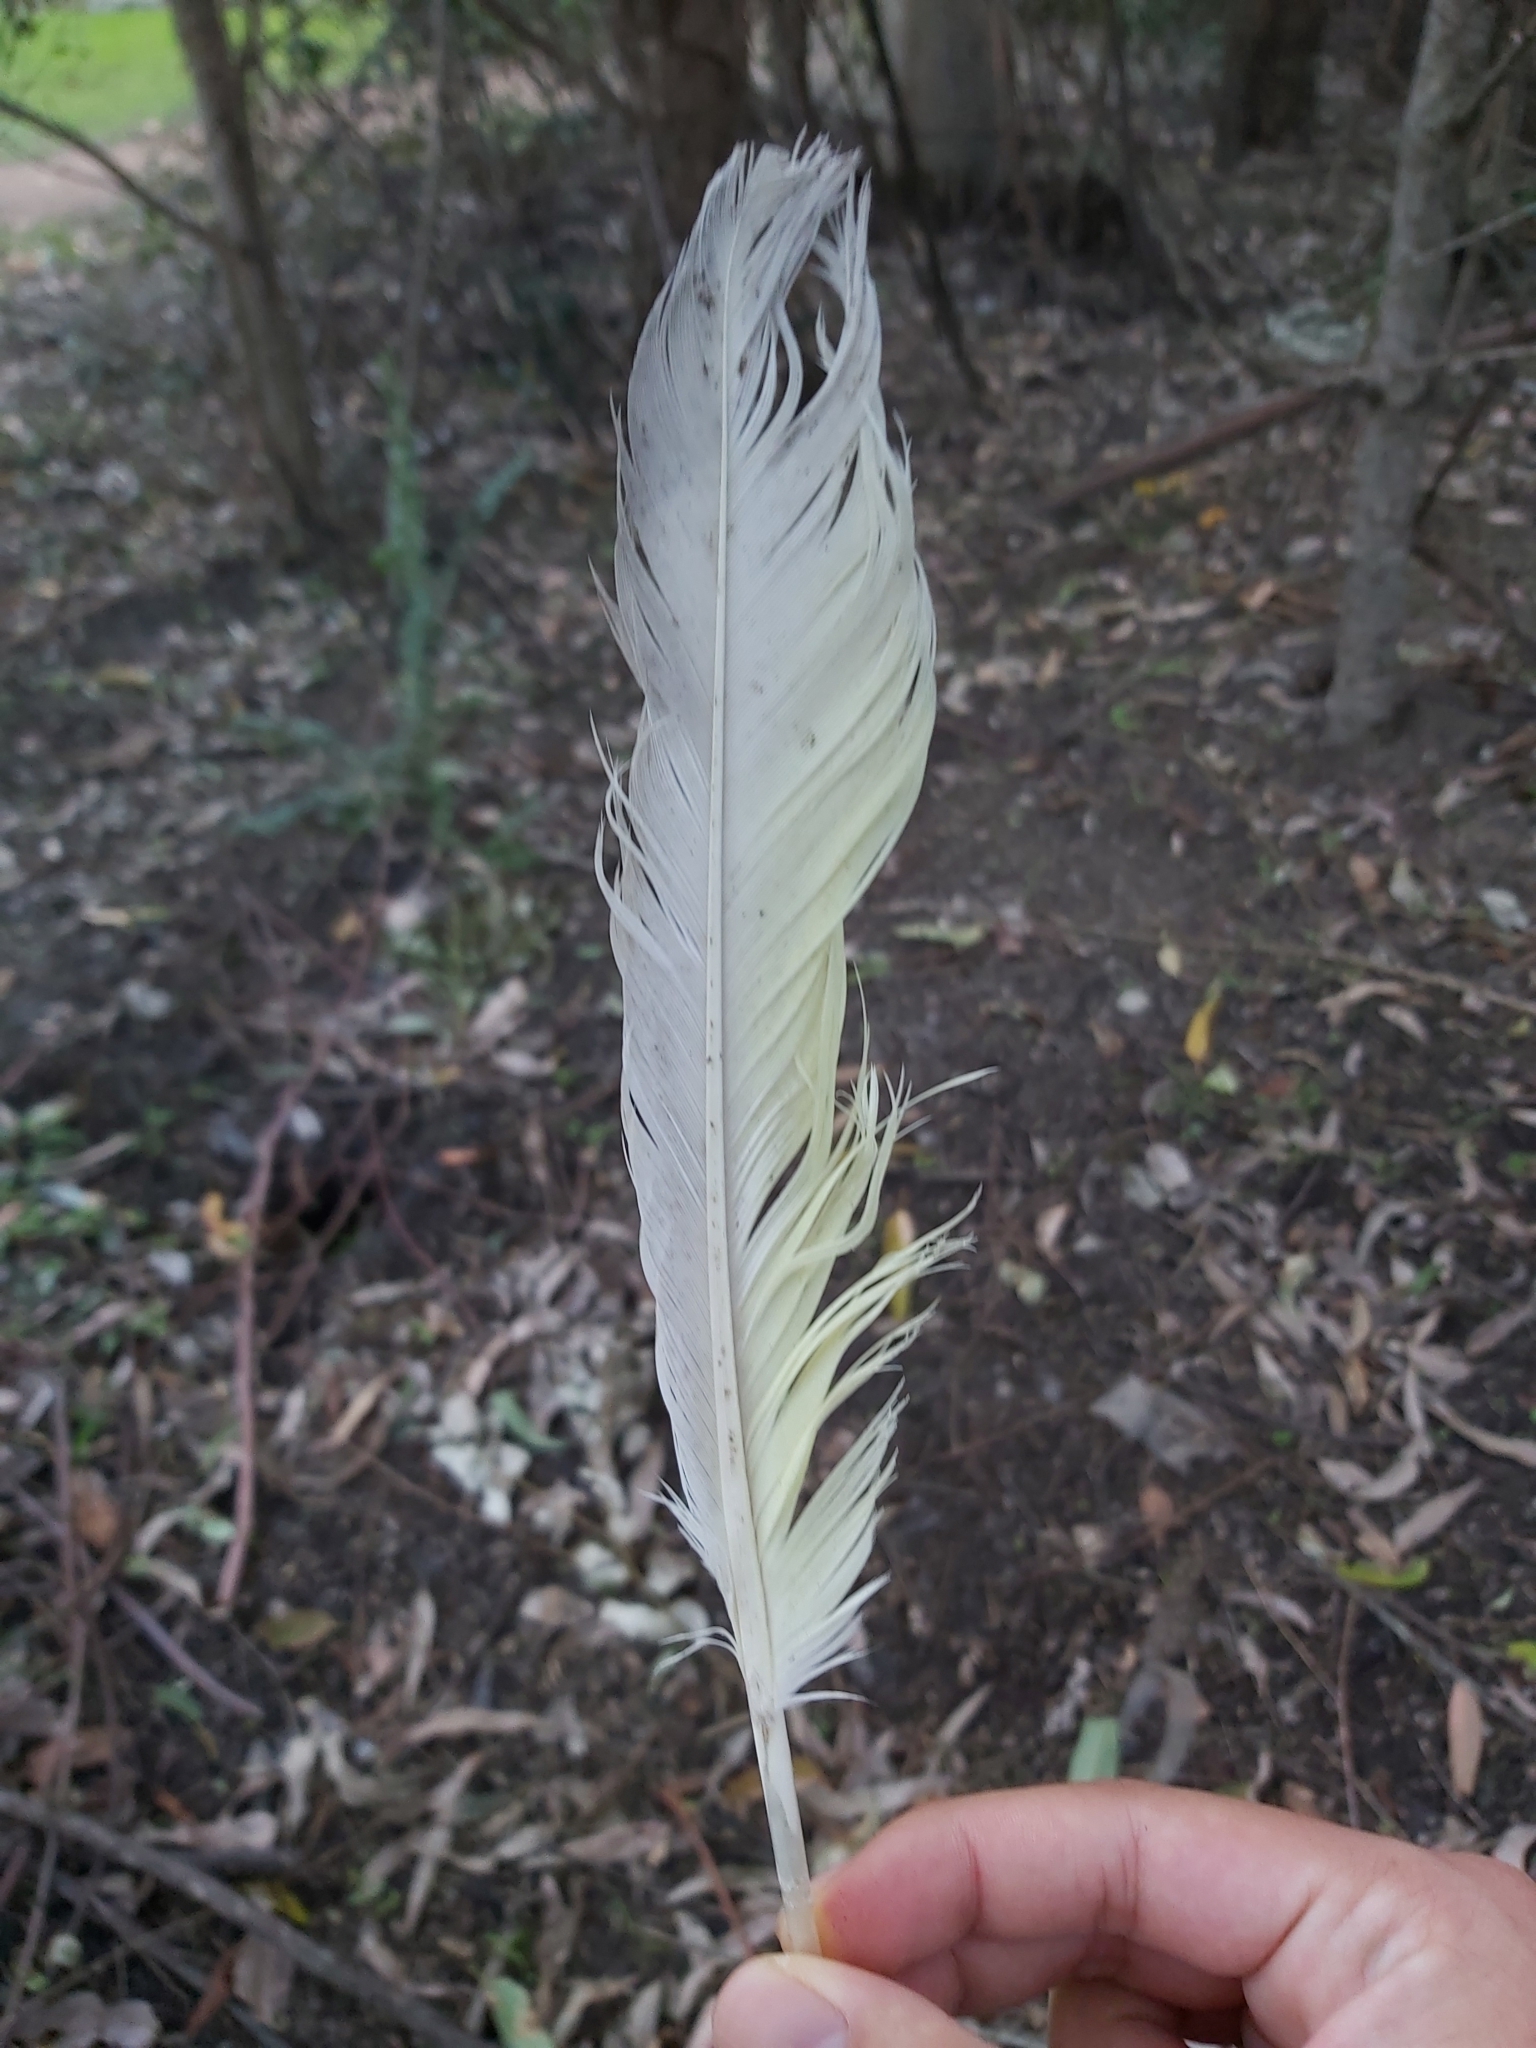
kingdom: Animalia
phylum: Chordata
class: Aves
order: Psittaciformes
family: Psittacidae
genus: Cacatua
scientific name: Cacatua galerita
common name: Sulphur-crested cockatoo
